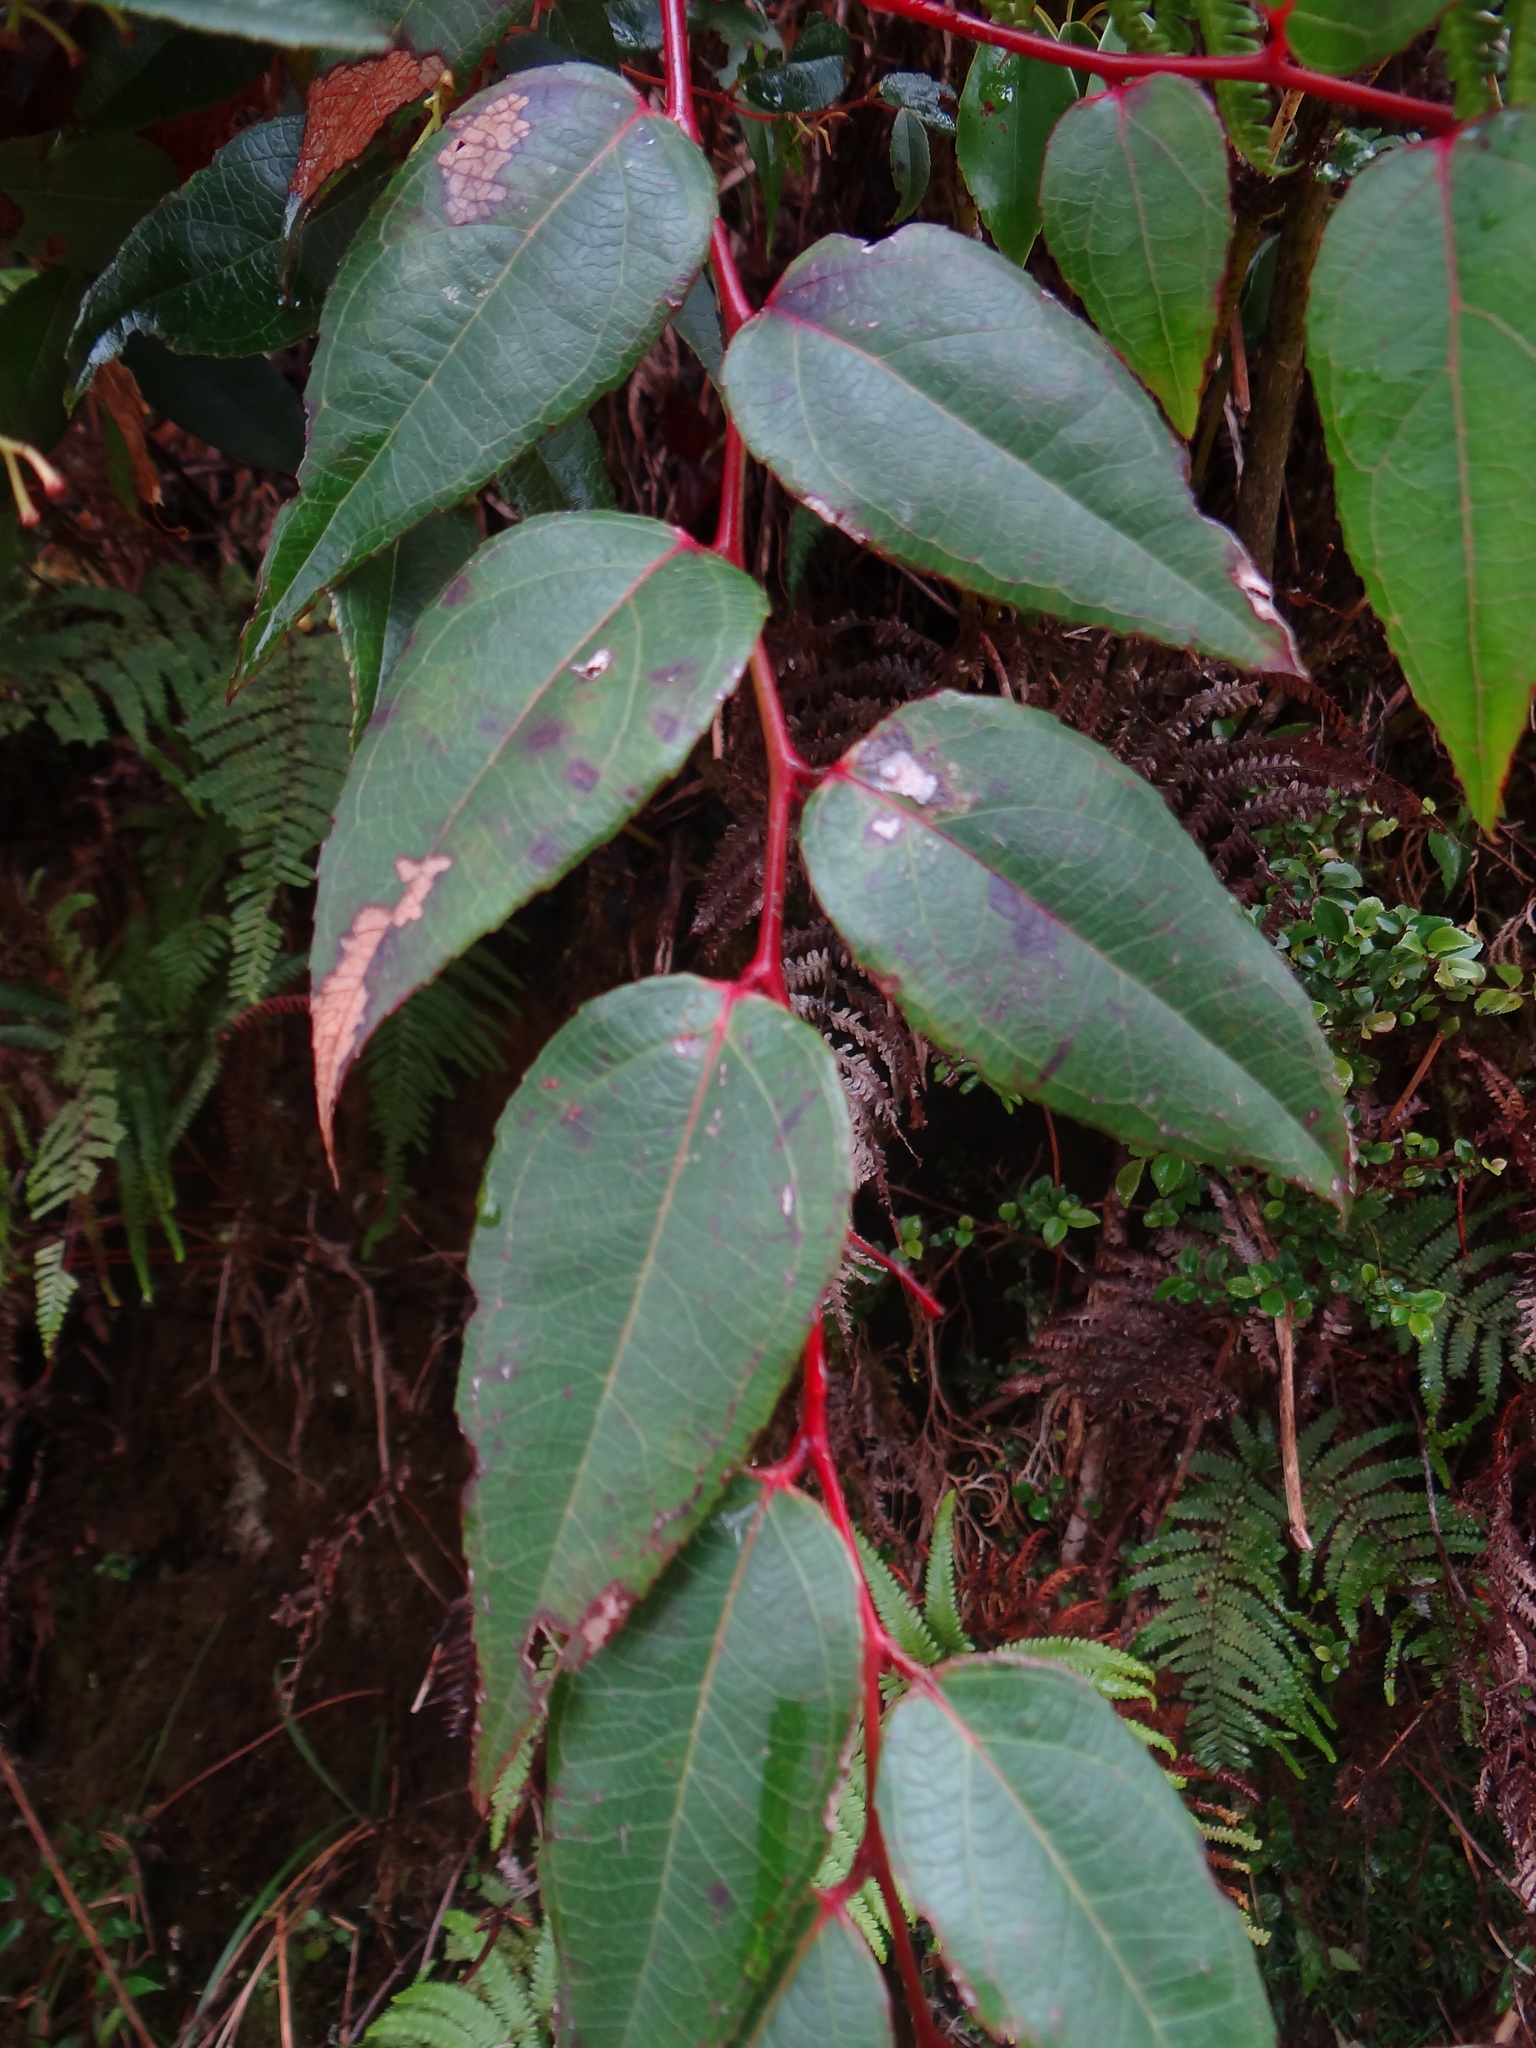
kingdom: Plantae
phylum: Tracheophyta
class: Magnoliopsida
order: Ericales
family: Ericaceae
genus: Gaultheria
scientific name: Gaultheria leucocarpa
